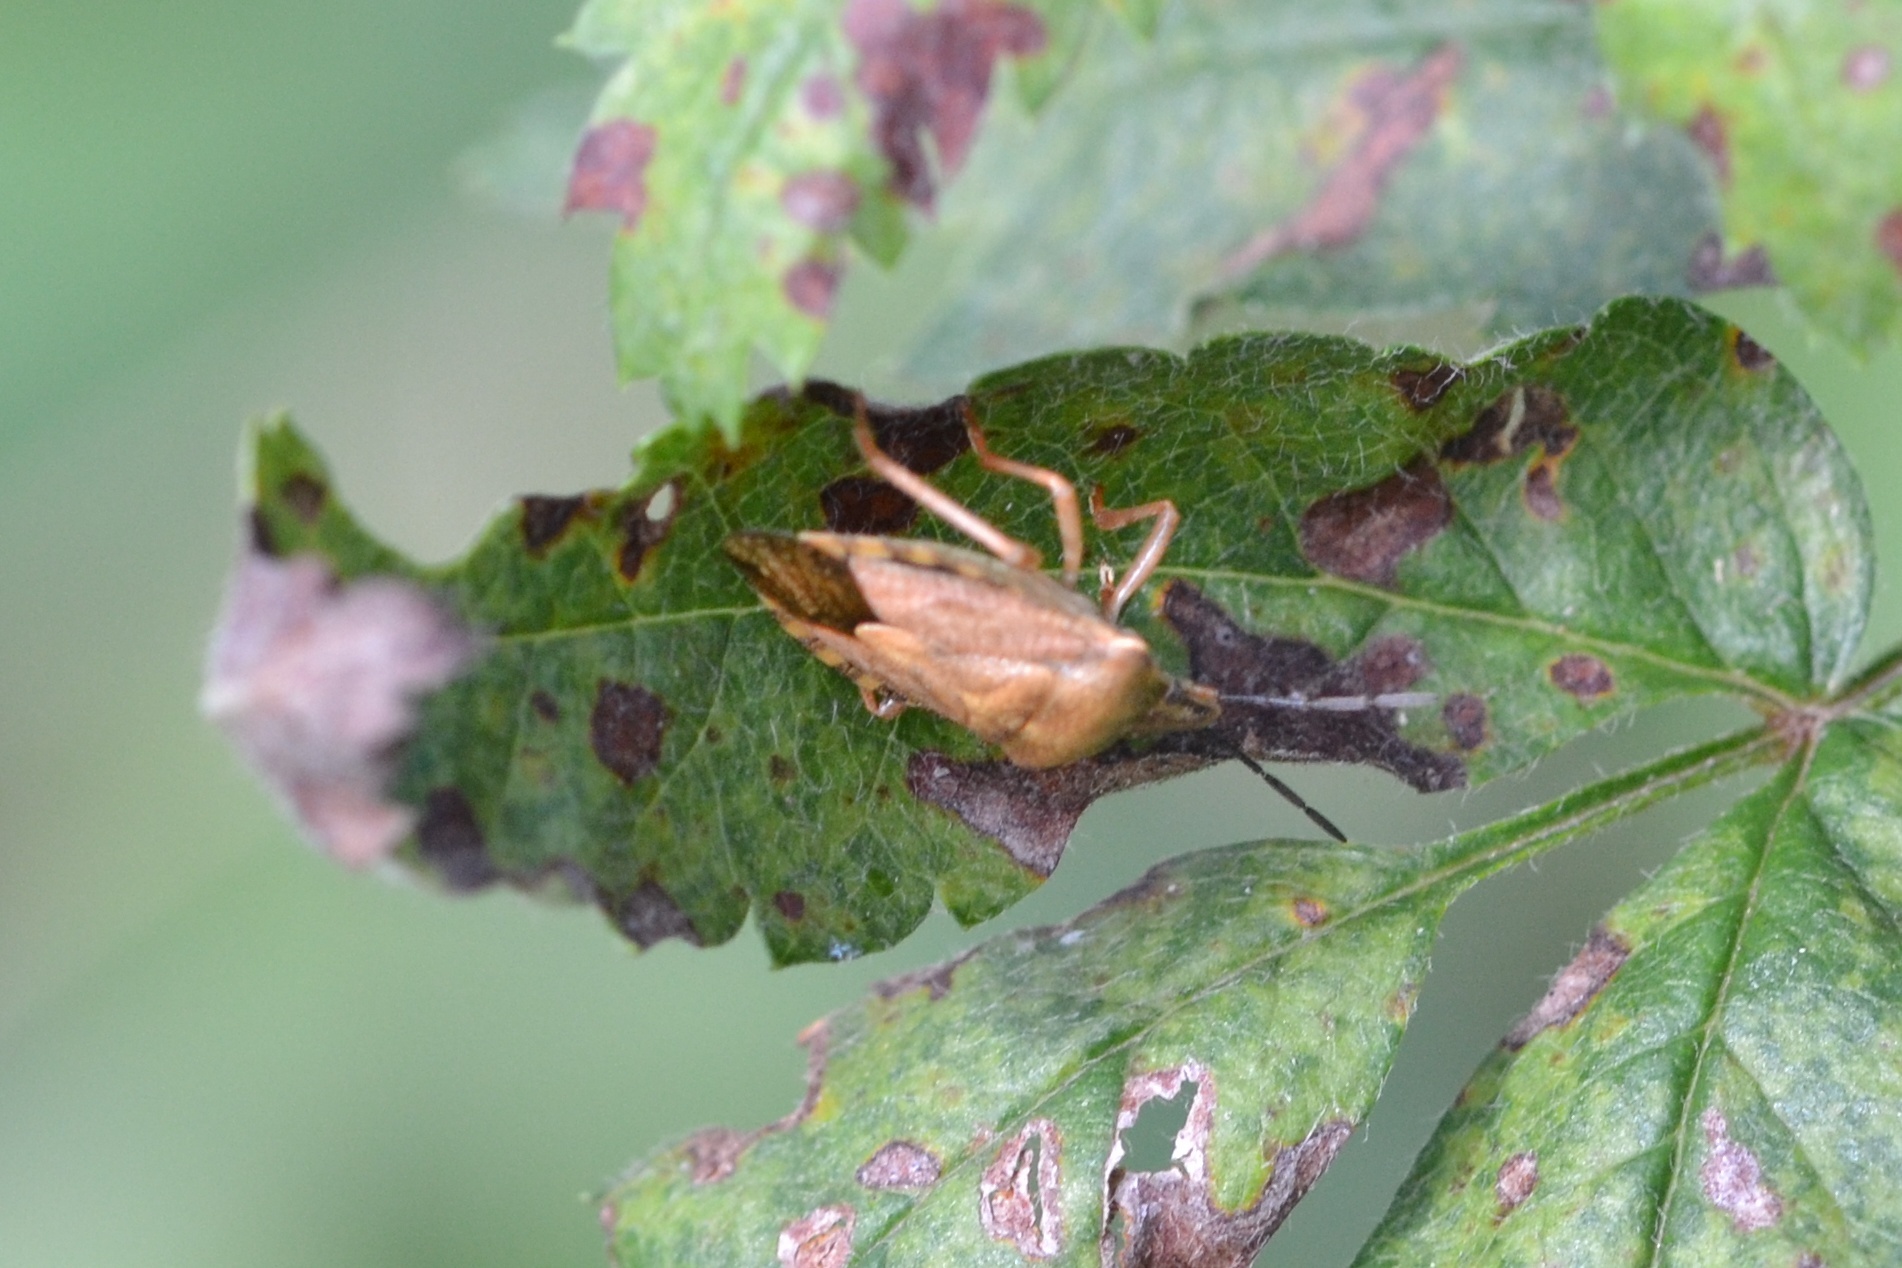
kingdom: Animalia
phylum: Arthropoda
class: Insecta
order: Hemiptera
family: Pentatomidae
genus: Carpocoris
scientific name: Carpocoris purpureipennis
